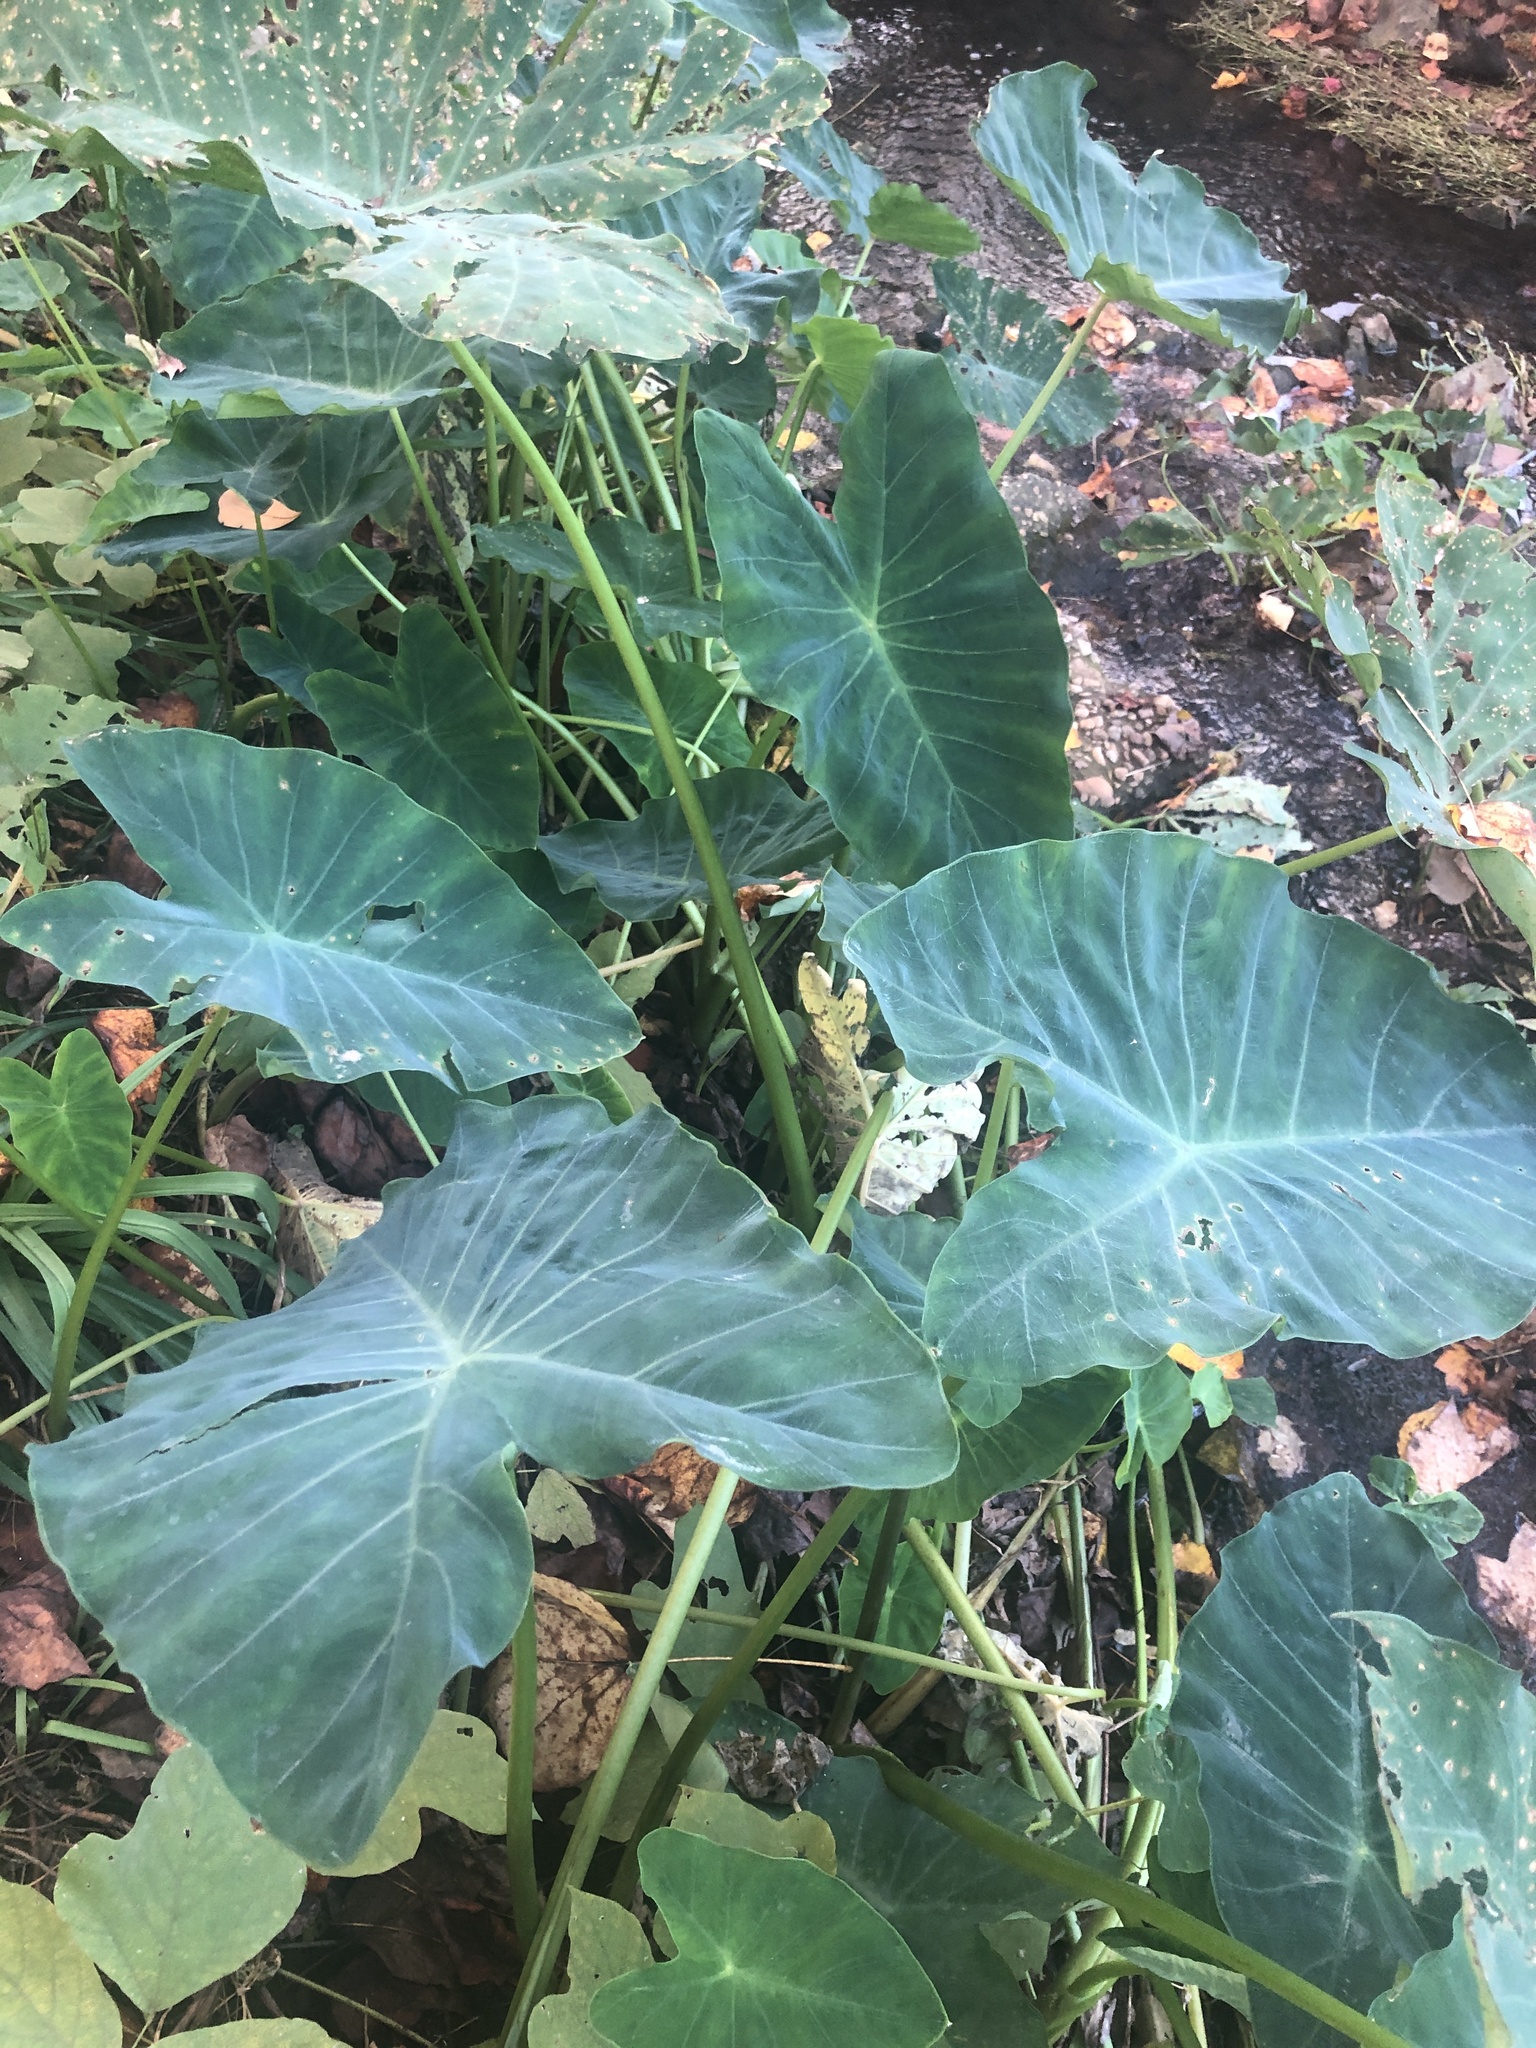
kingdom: Plantae
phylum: Tracheophyta
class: Liliopsida
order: Alismatales
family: Araceae
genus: Colocasia
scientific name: Colocasia esculenta
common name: Taro
